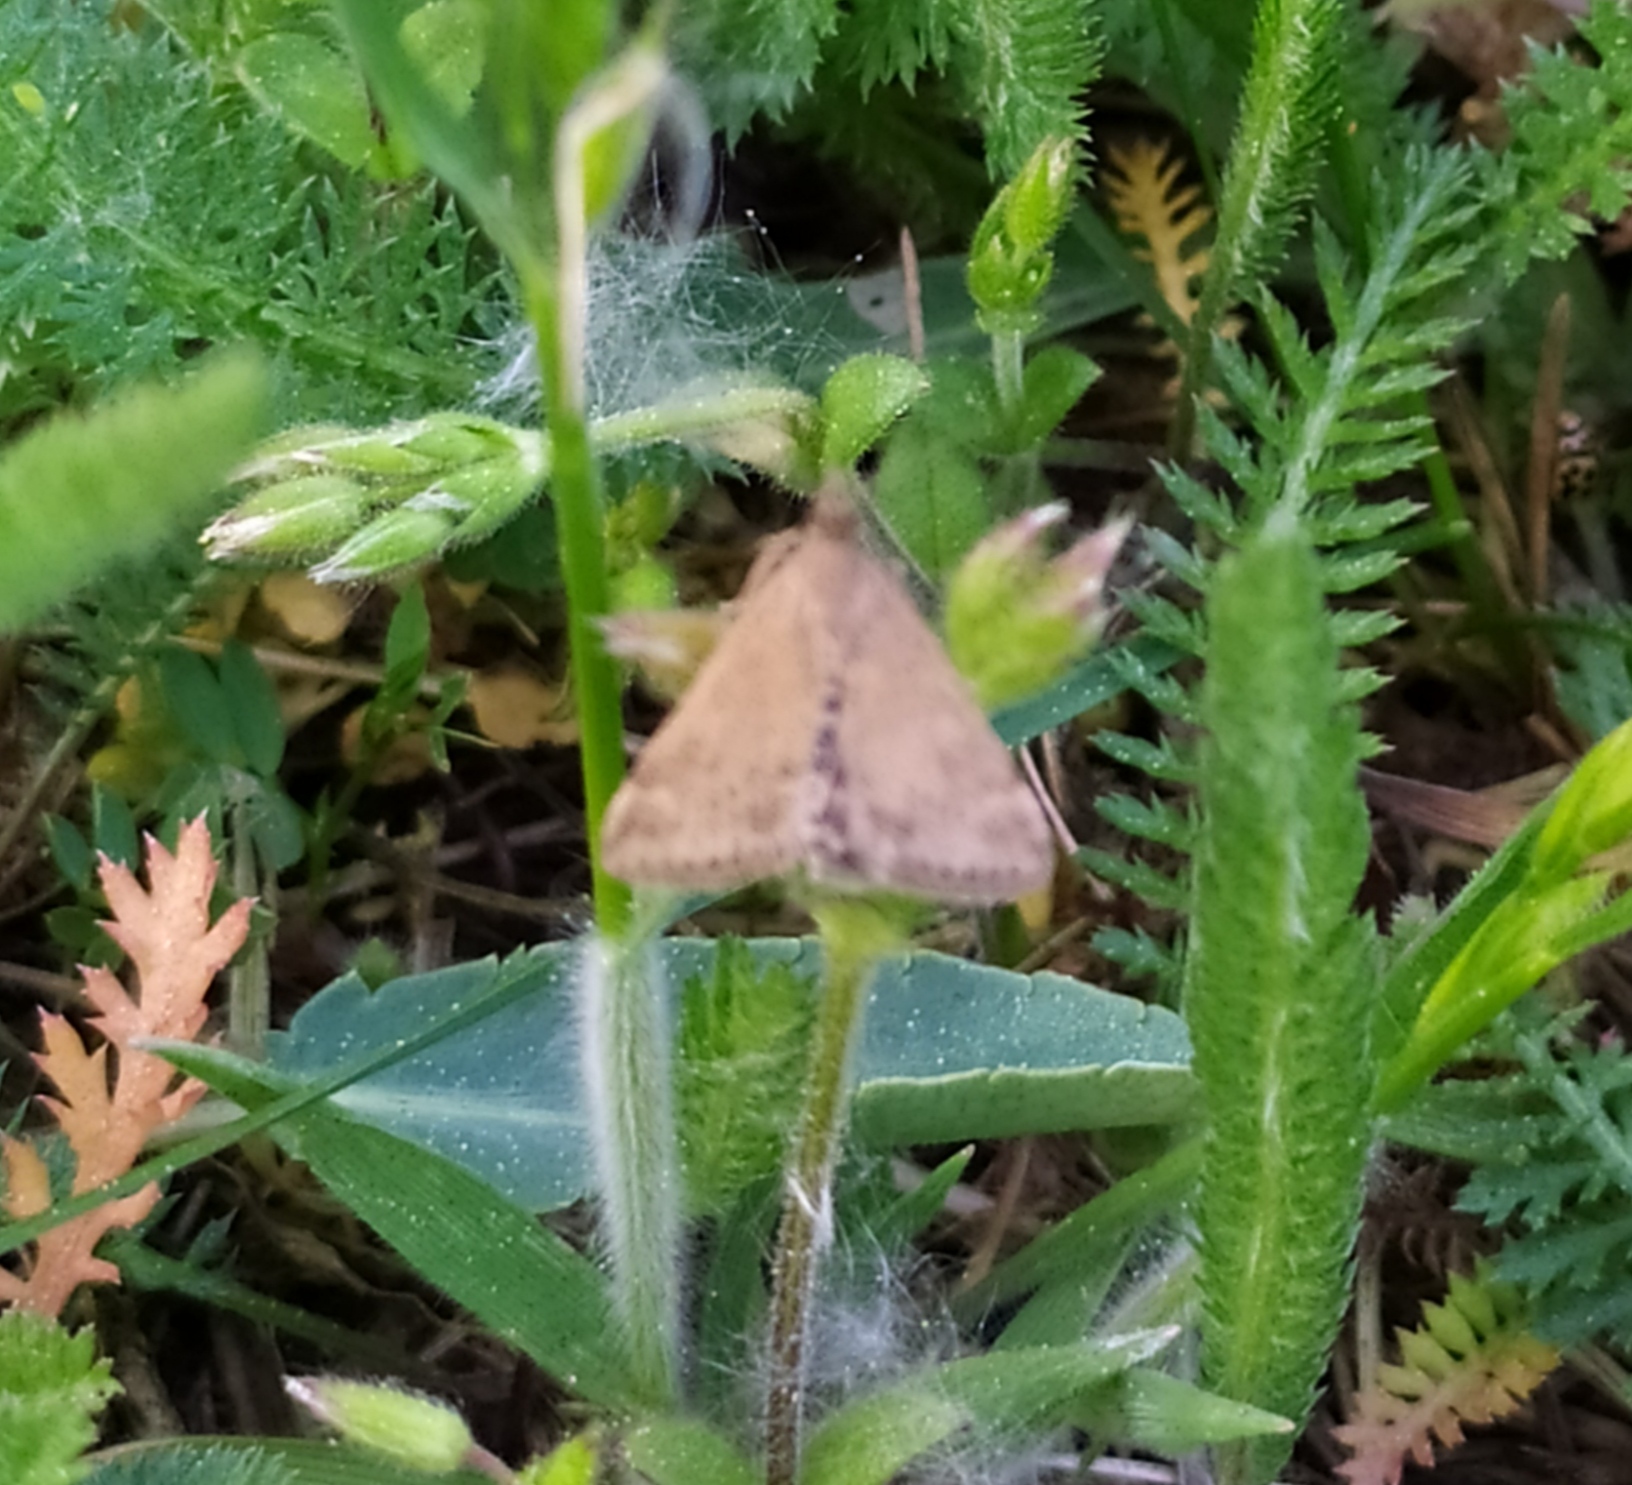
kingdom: Animalia
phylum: Arthropoda
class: Insecta
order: Lepidoptera
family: Crambidae
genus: Pyrausta
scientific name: Pyrausta despicata
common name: Straw-barred pearl
